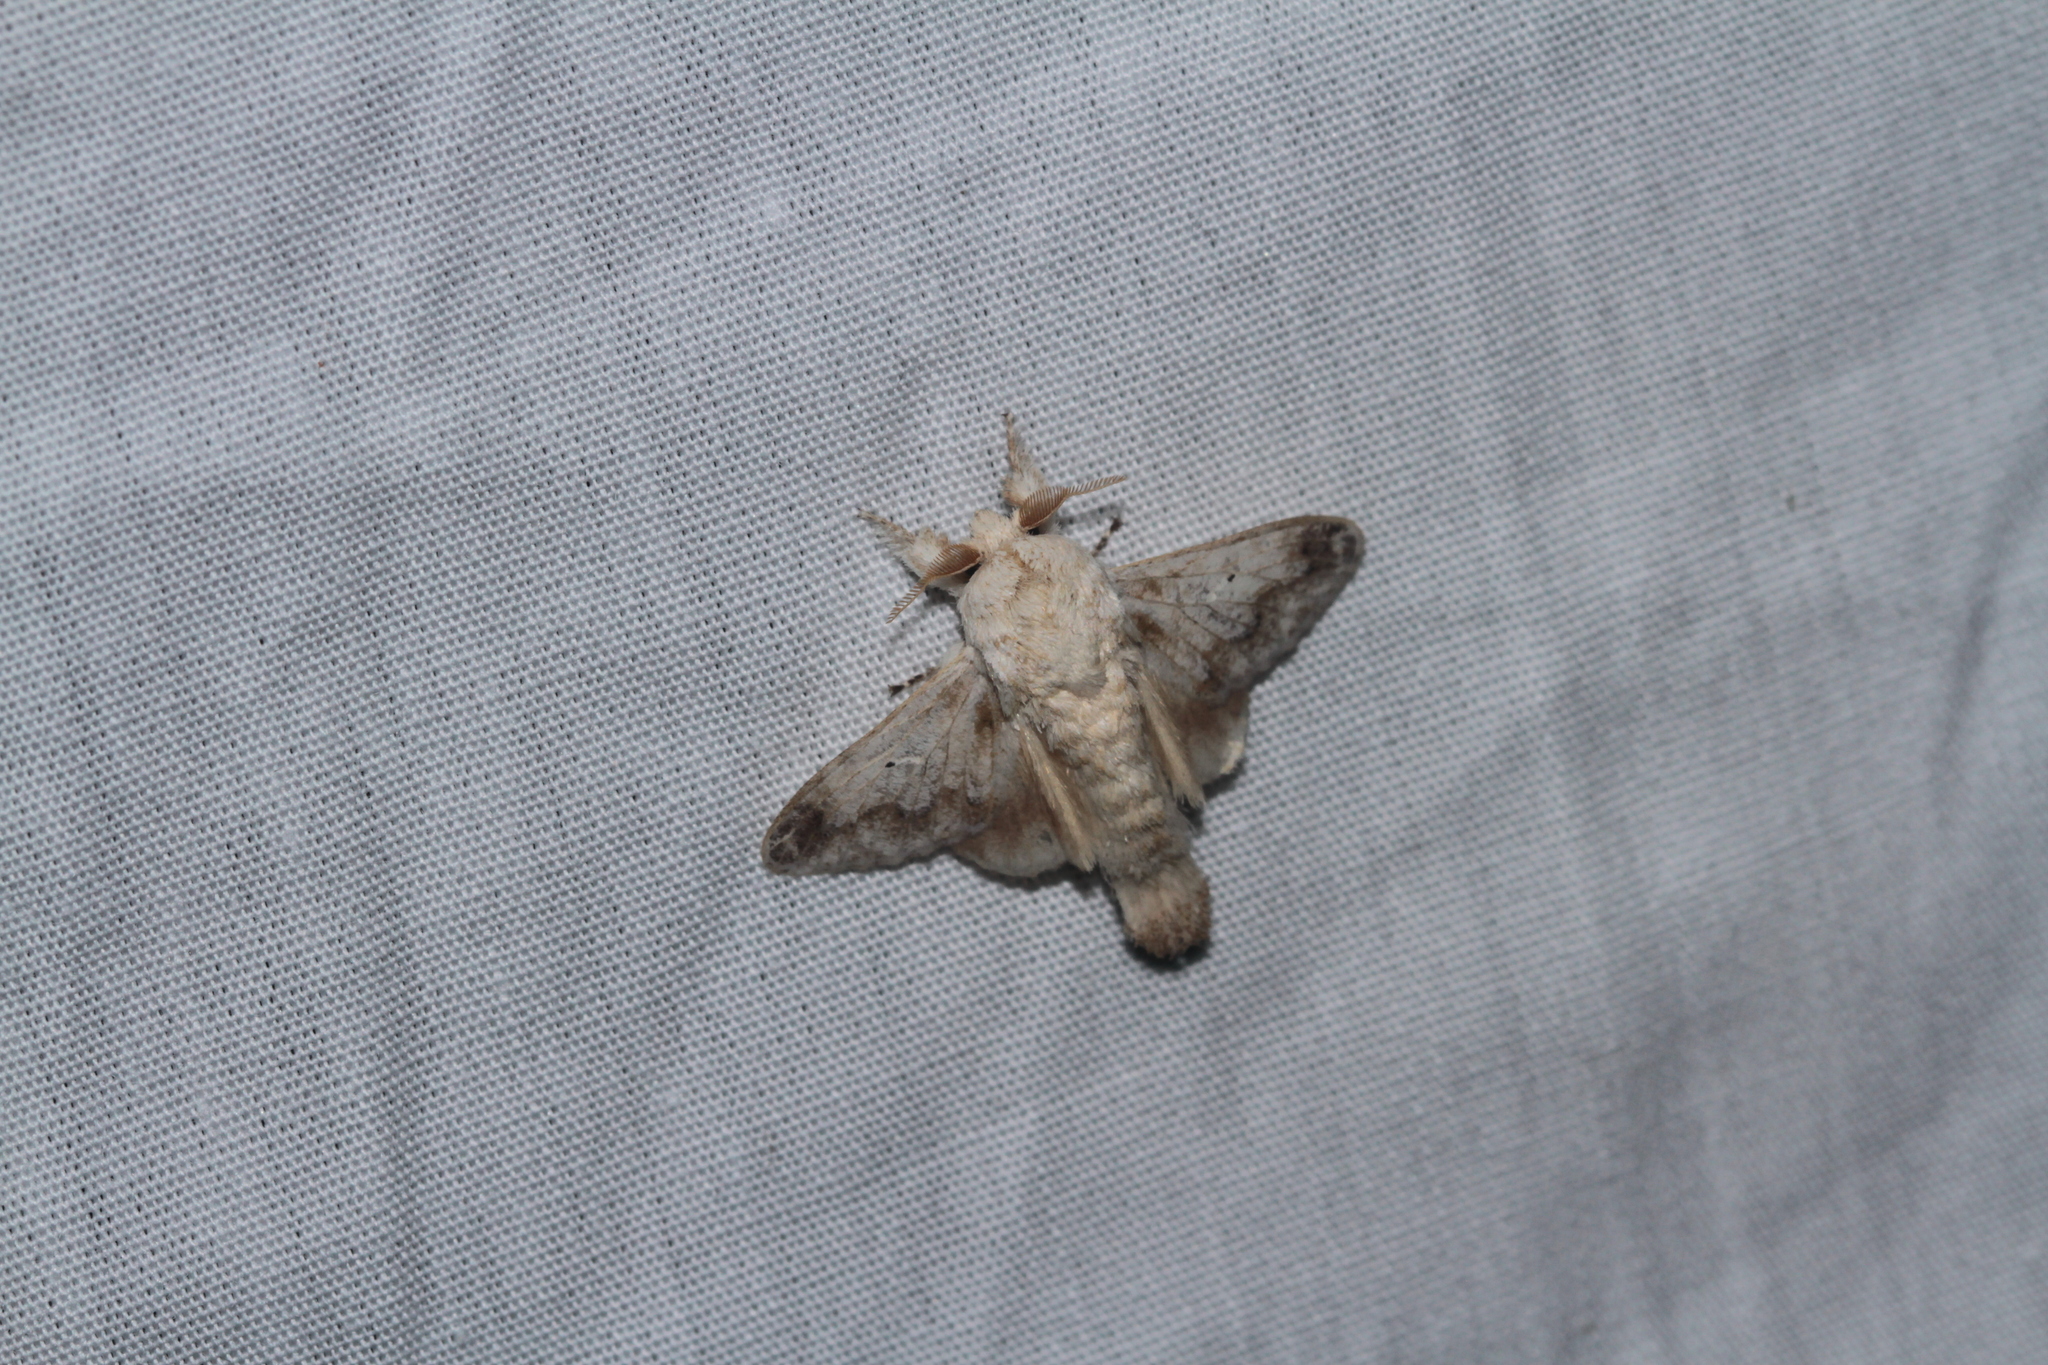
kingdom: Animalia
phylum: Arthropoda
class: Insecta
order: Lepidoptera
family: Lasiocampidae
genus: Tolype
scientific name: Tolype poggia
